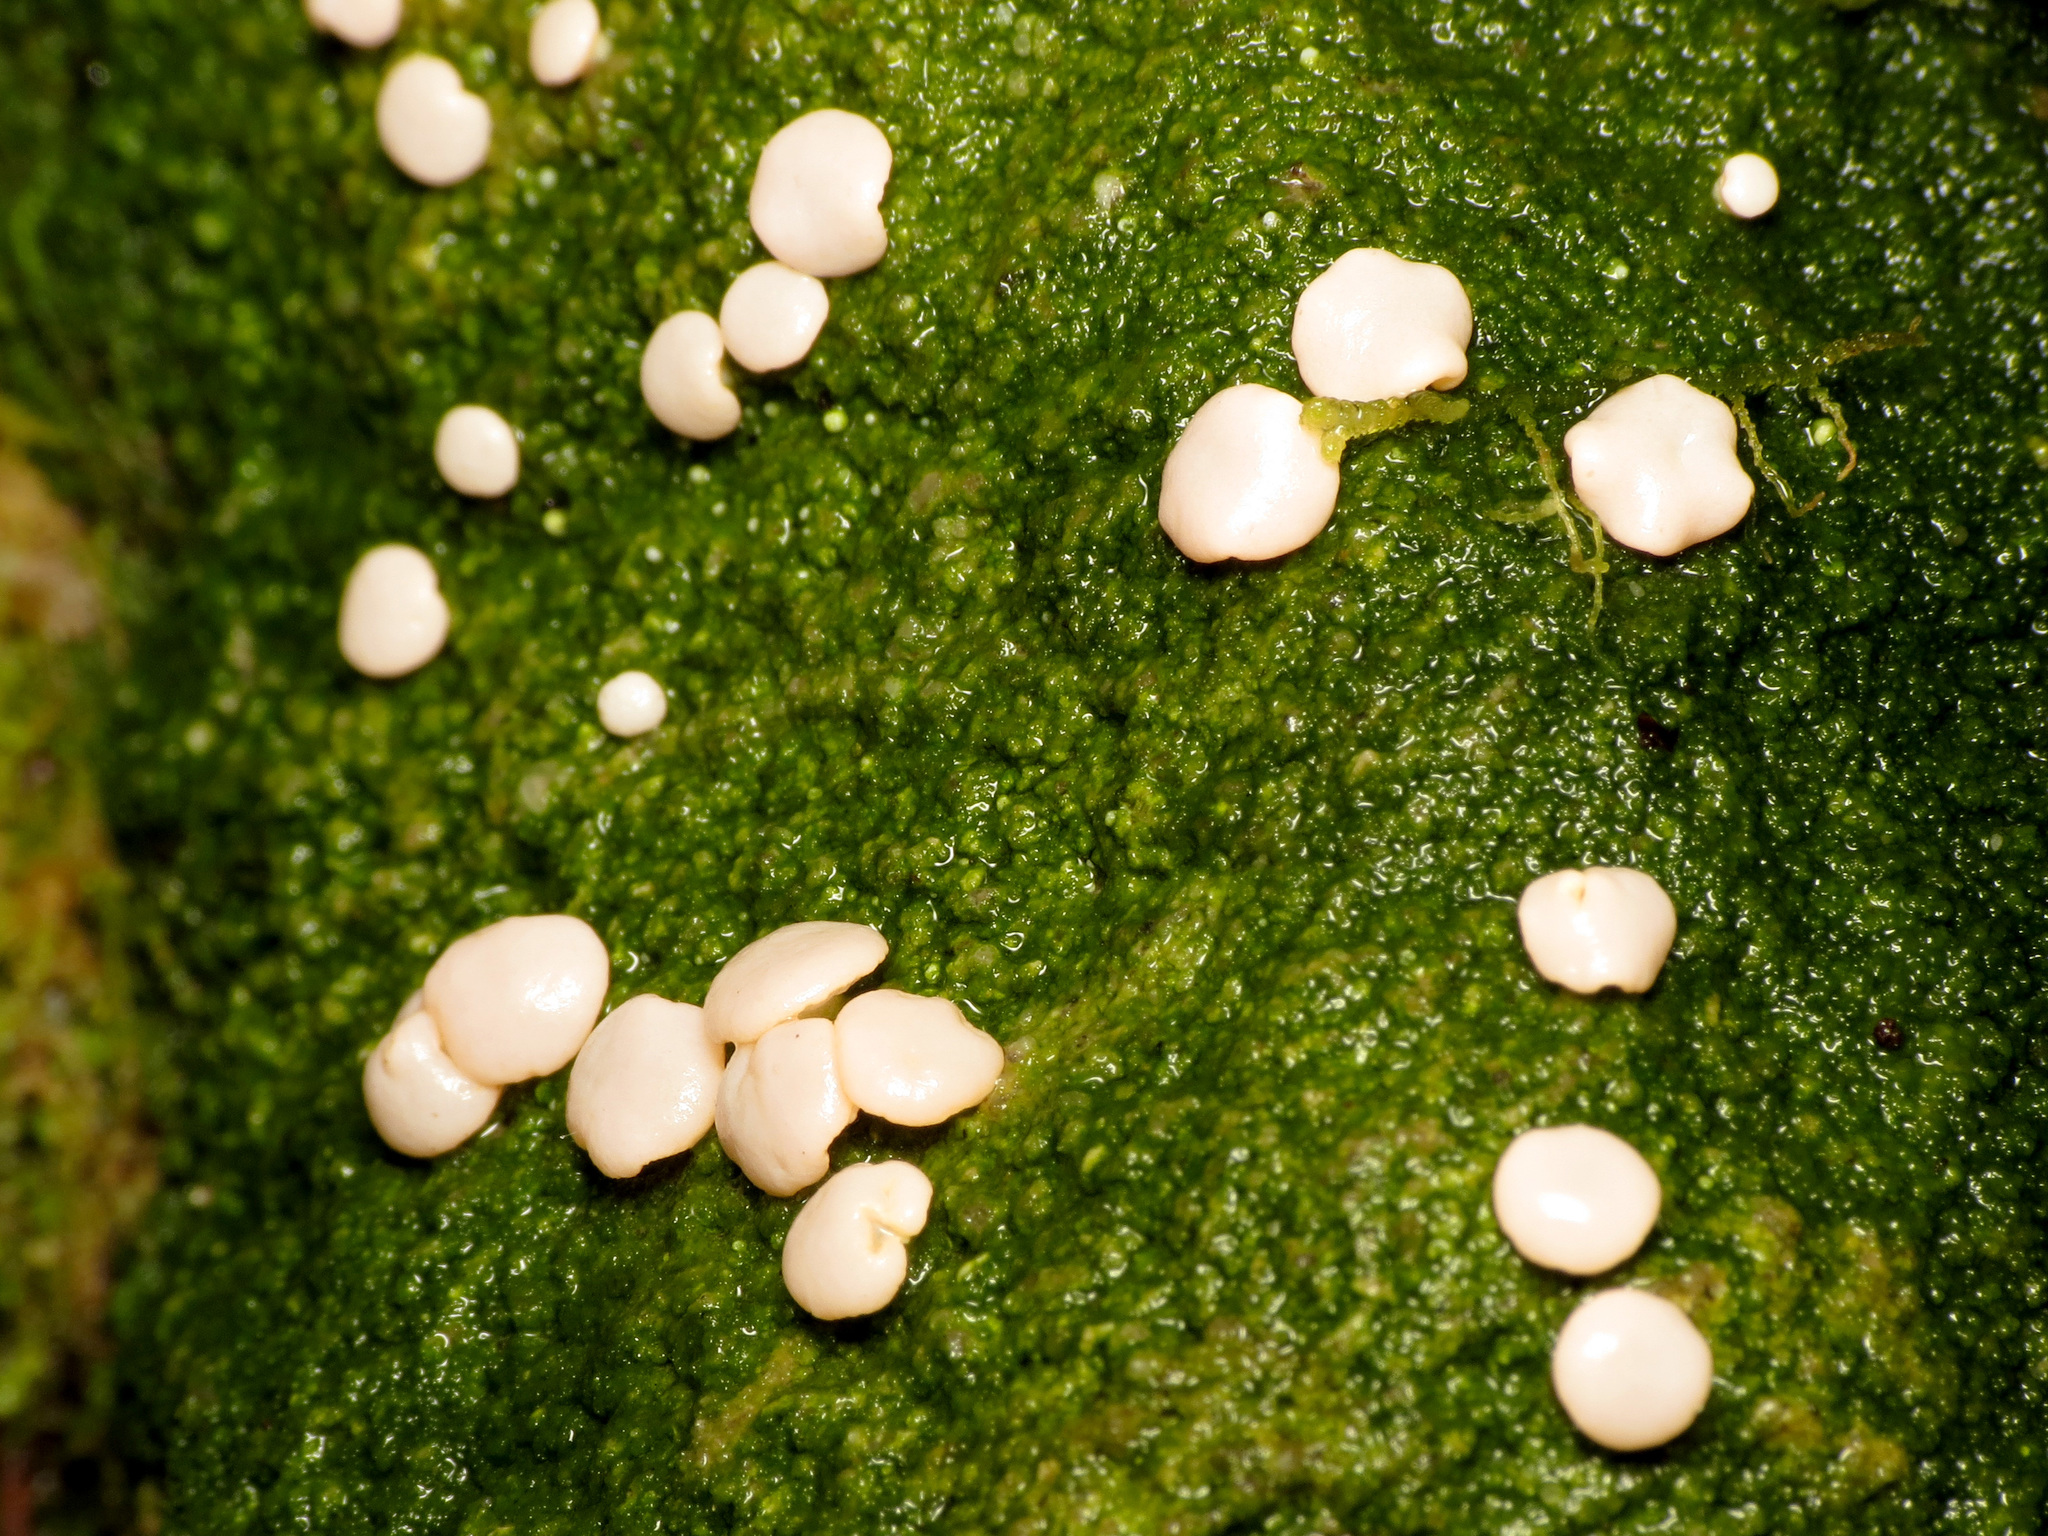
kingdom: Fungi
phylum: Ascomycota
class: Lecanoromycetes
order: Pertusariales
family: Icmadophilaceae
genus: Dibaeis
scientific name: Dibaeis absoluta
